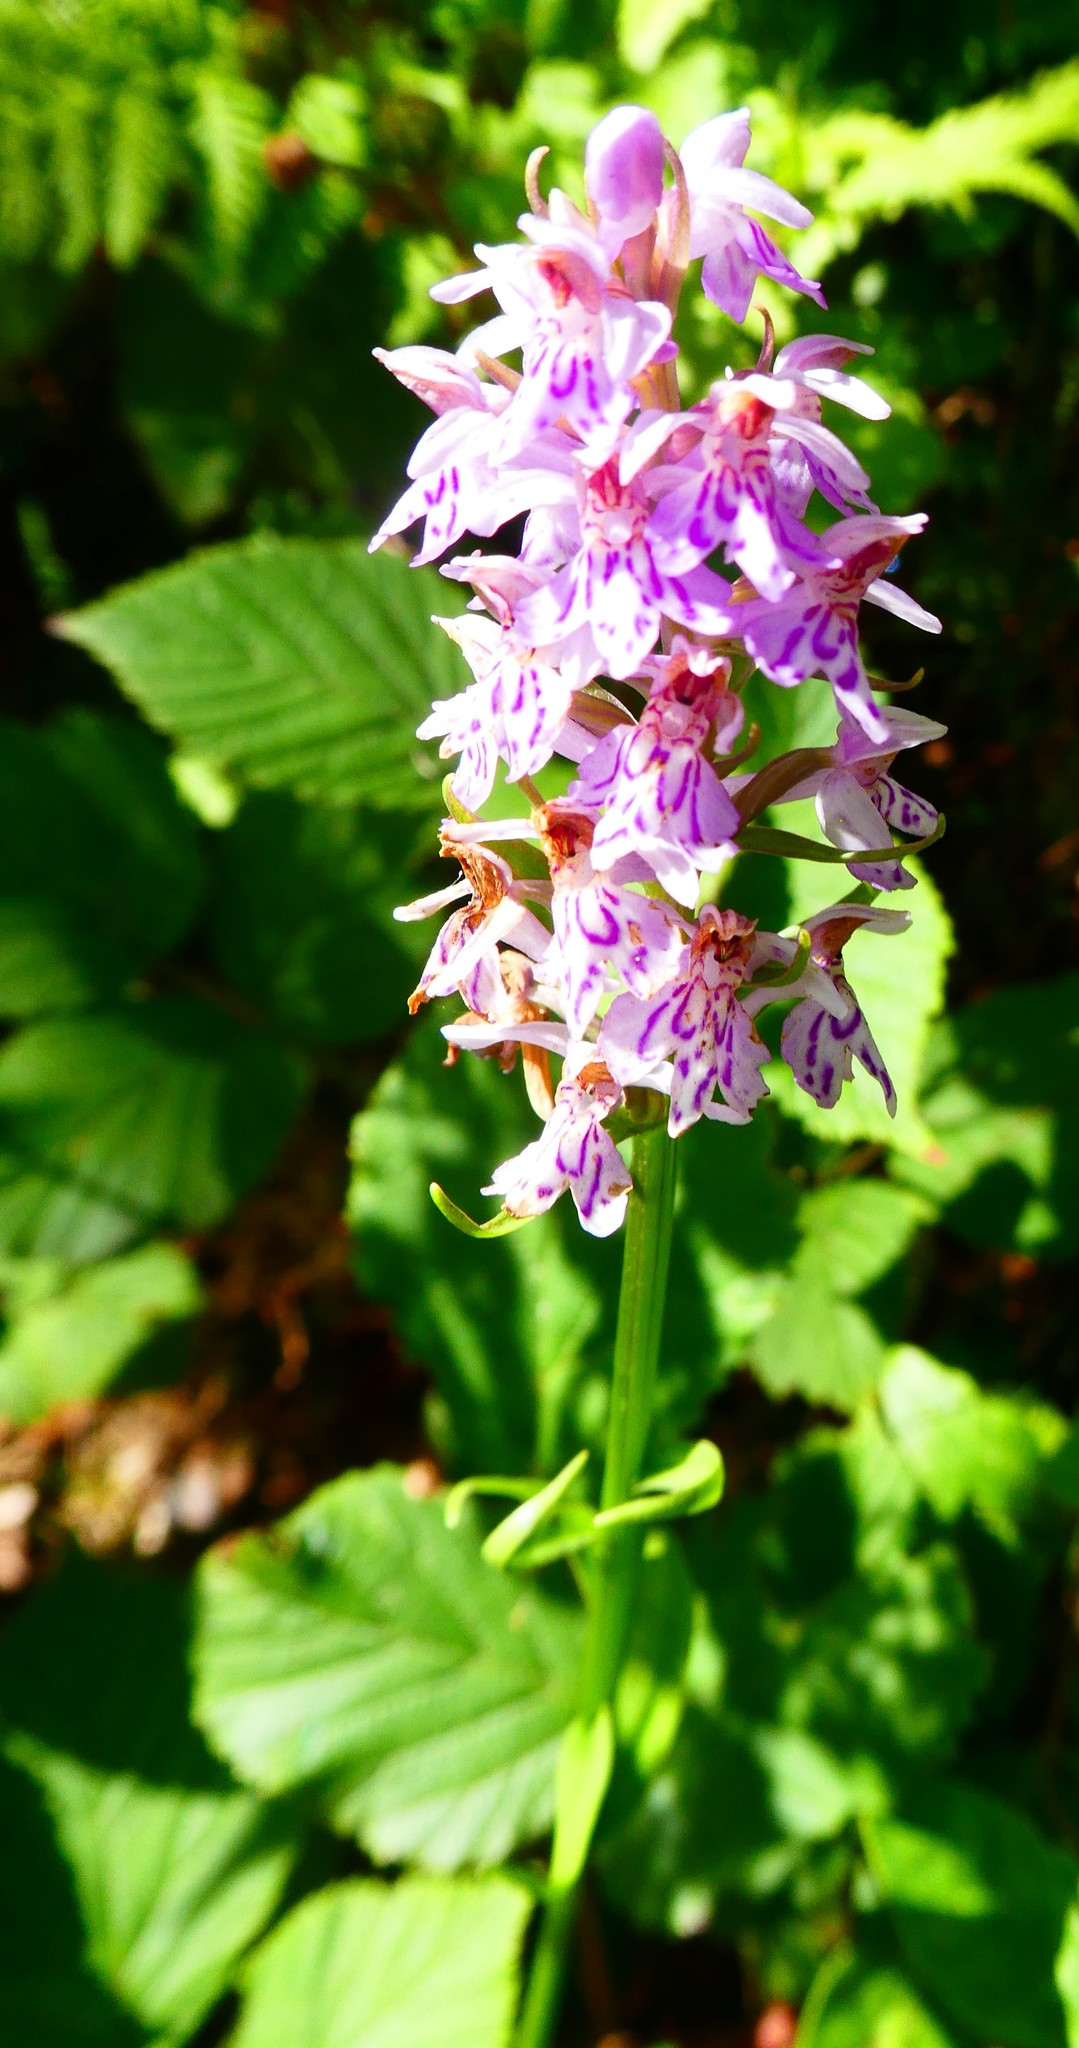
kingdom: Plantae
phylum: Tracheophyta
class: Liliopsida
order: Asparagales
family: Orchidaceae
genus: Dactylorhiza
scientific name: Dactylorhiza maculata
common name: Heath spotted-orchid
